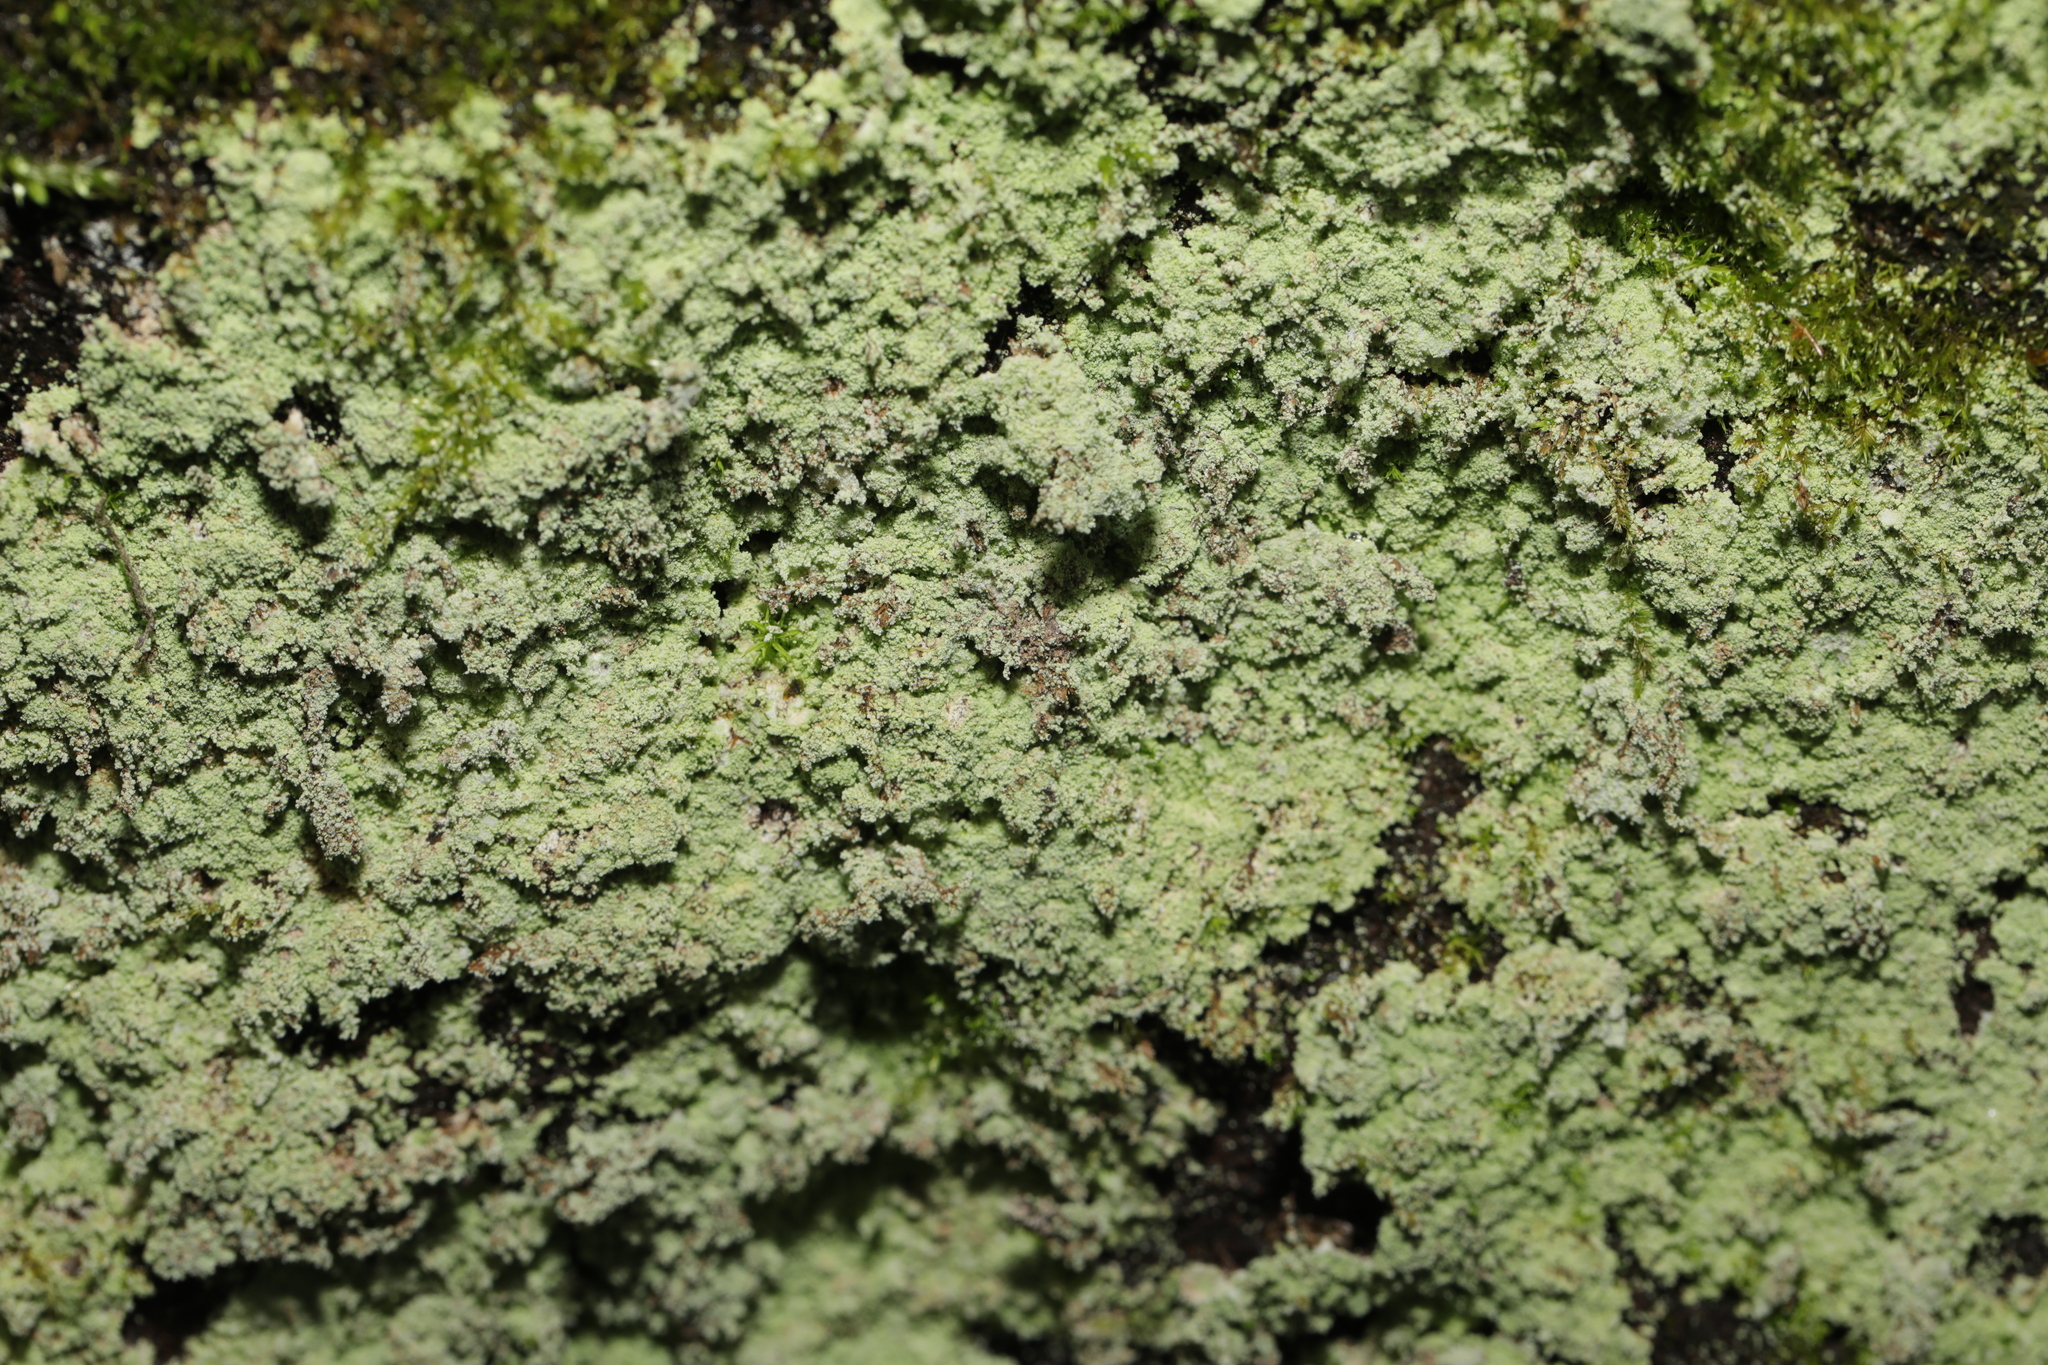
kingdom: Fungi
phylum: Ascomycota
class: Lecanoromycetes
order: Lecanorales
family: Stereocaulaceae
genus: Lepraria
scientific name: Lepraria
